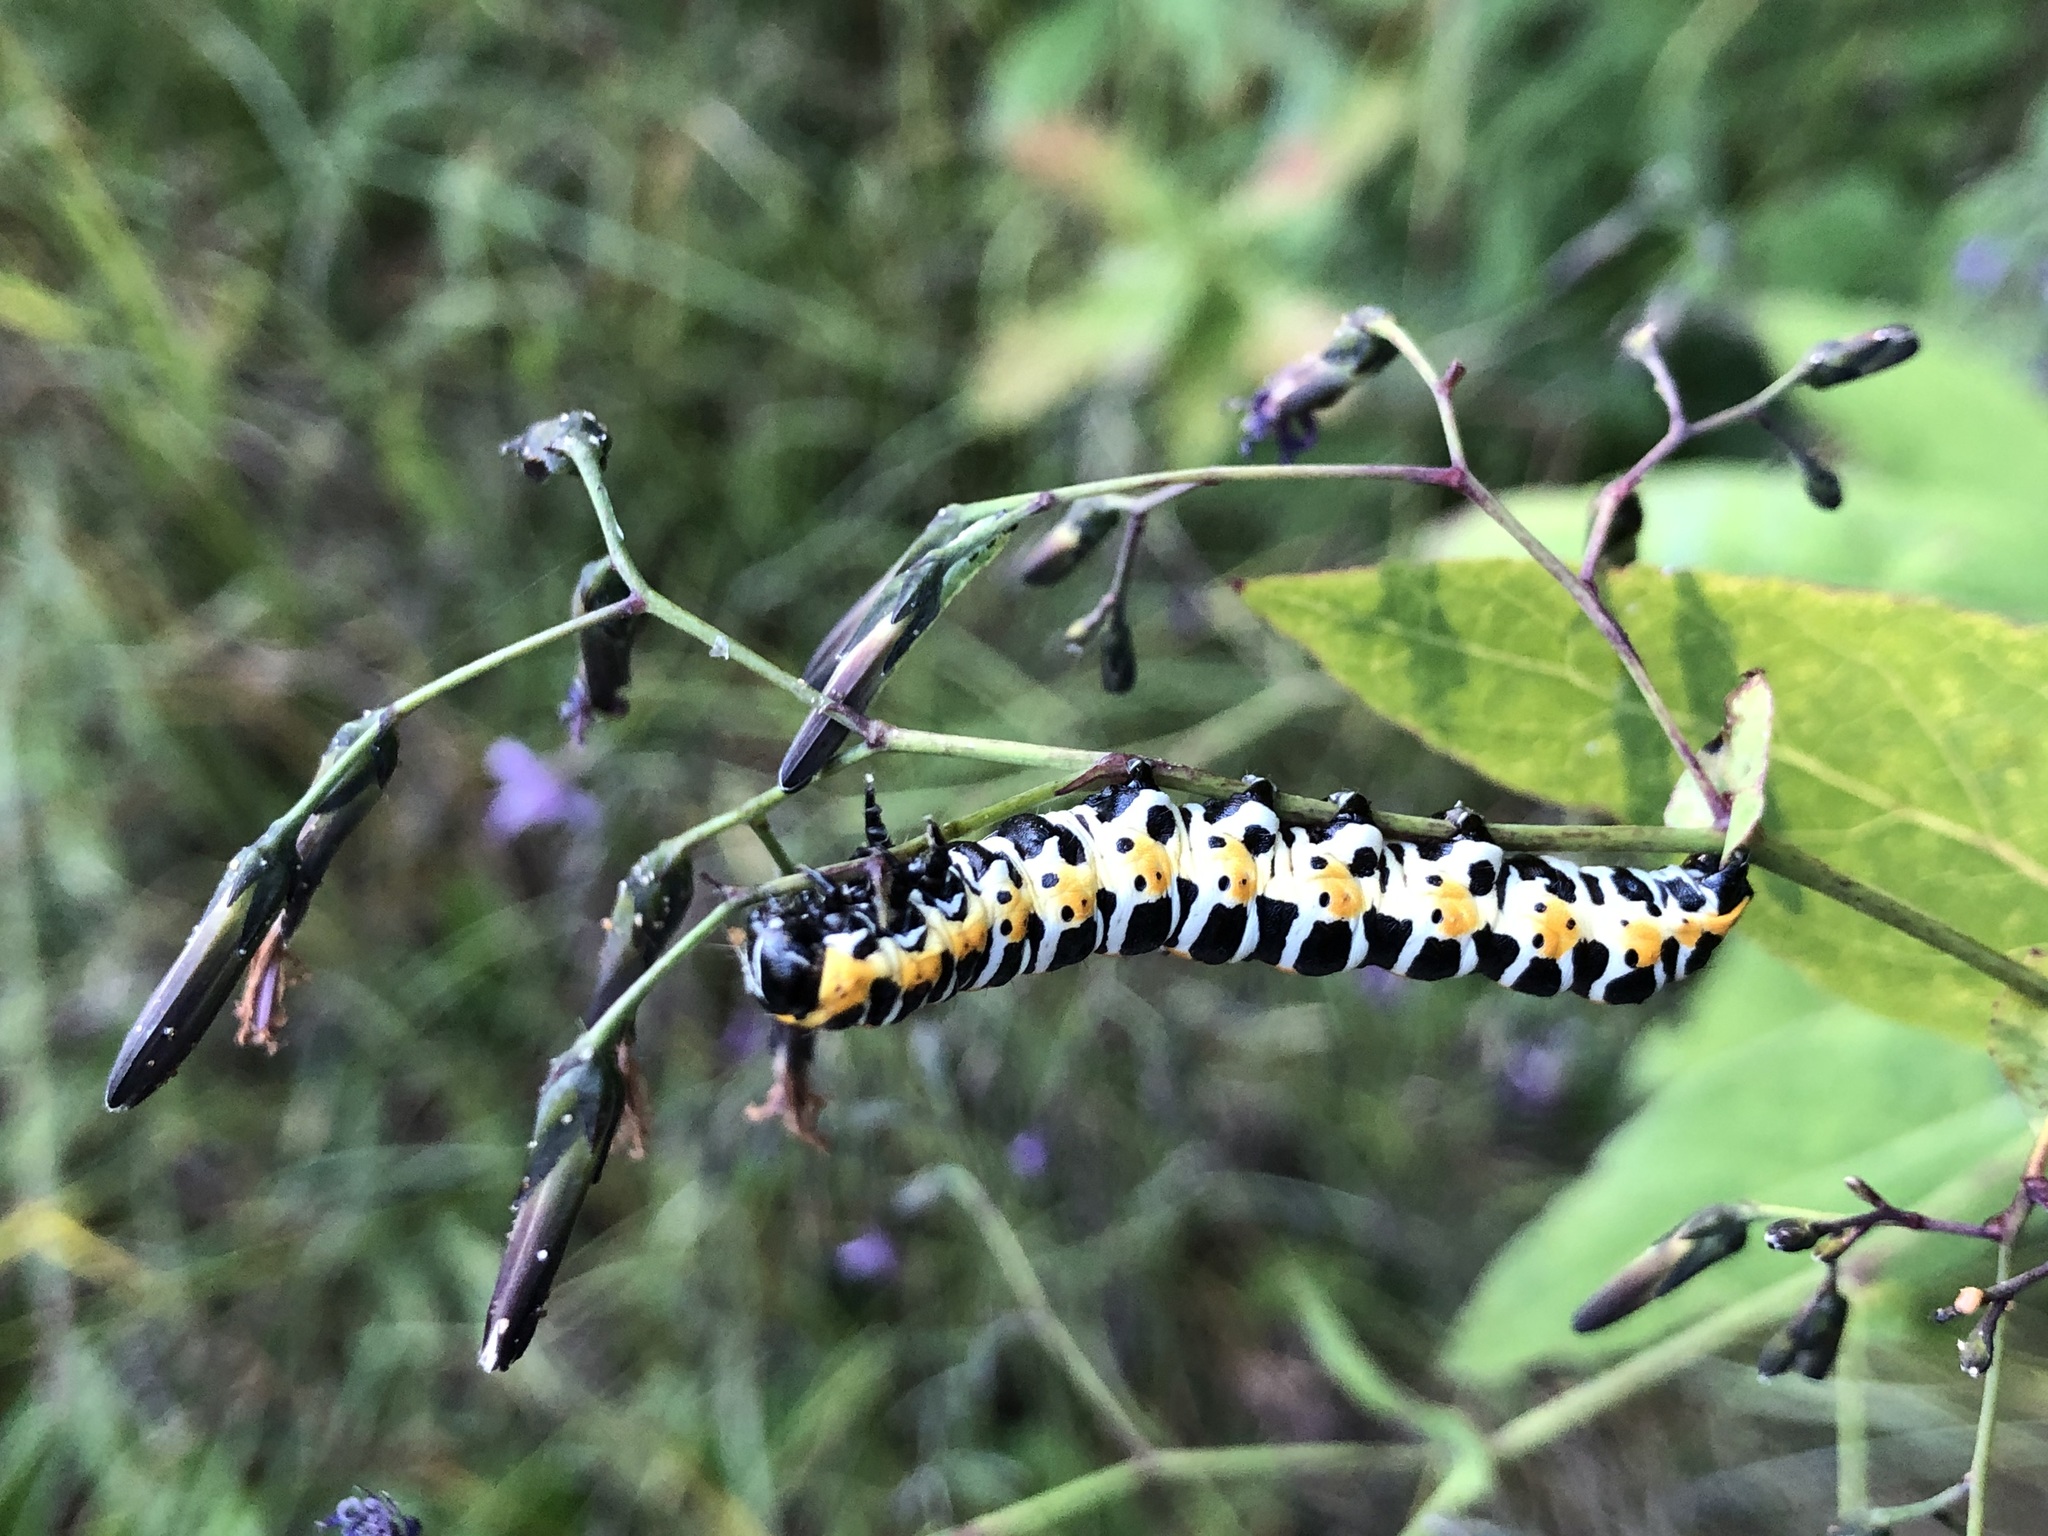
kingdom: Animalia
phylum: Arthropoda
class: Insecta
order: Lepidoptera
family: Noctuidae
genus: Cucullia
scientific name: Cucullia lactucae
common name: Lettuce shark
